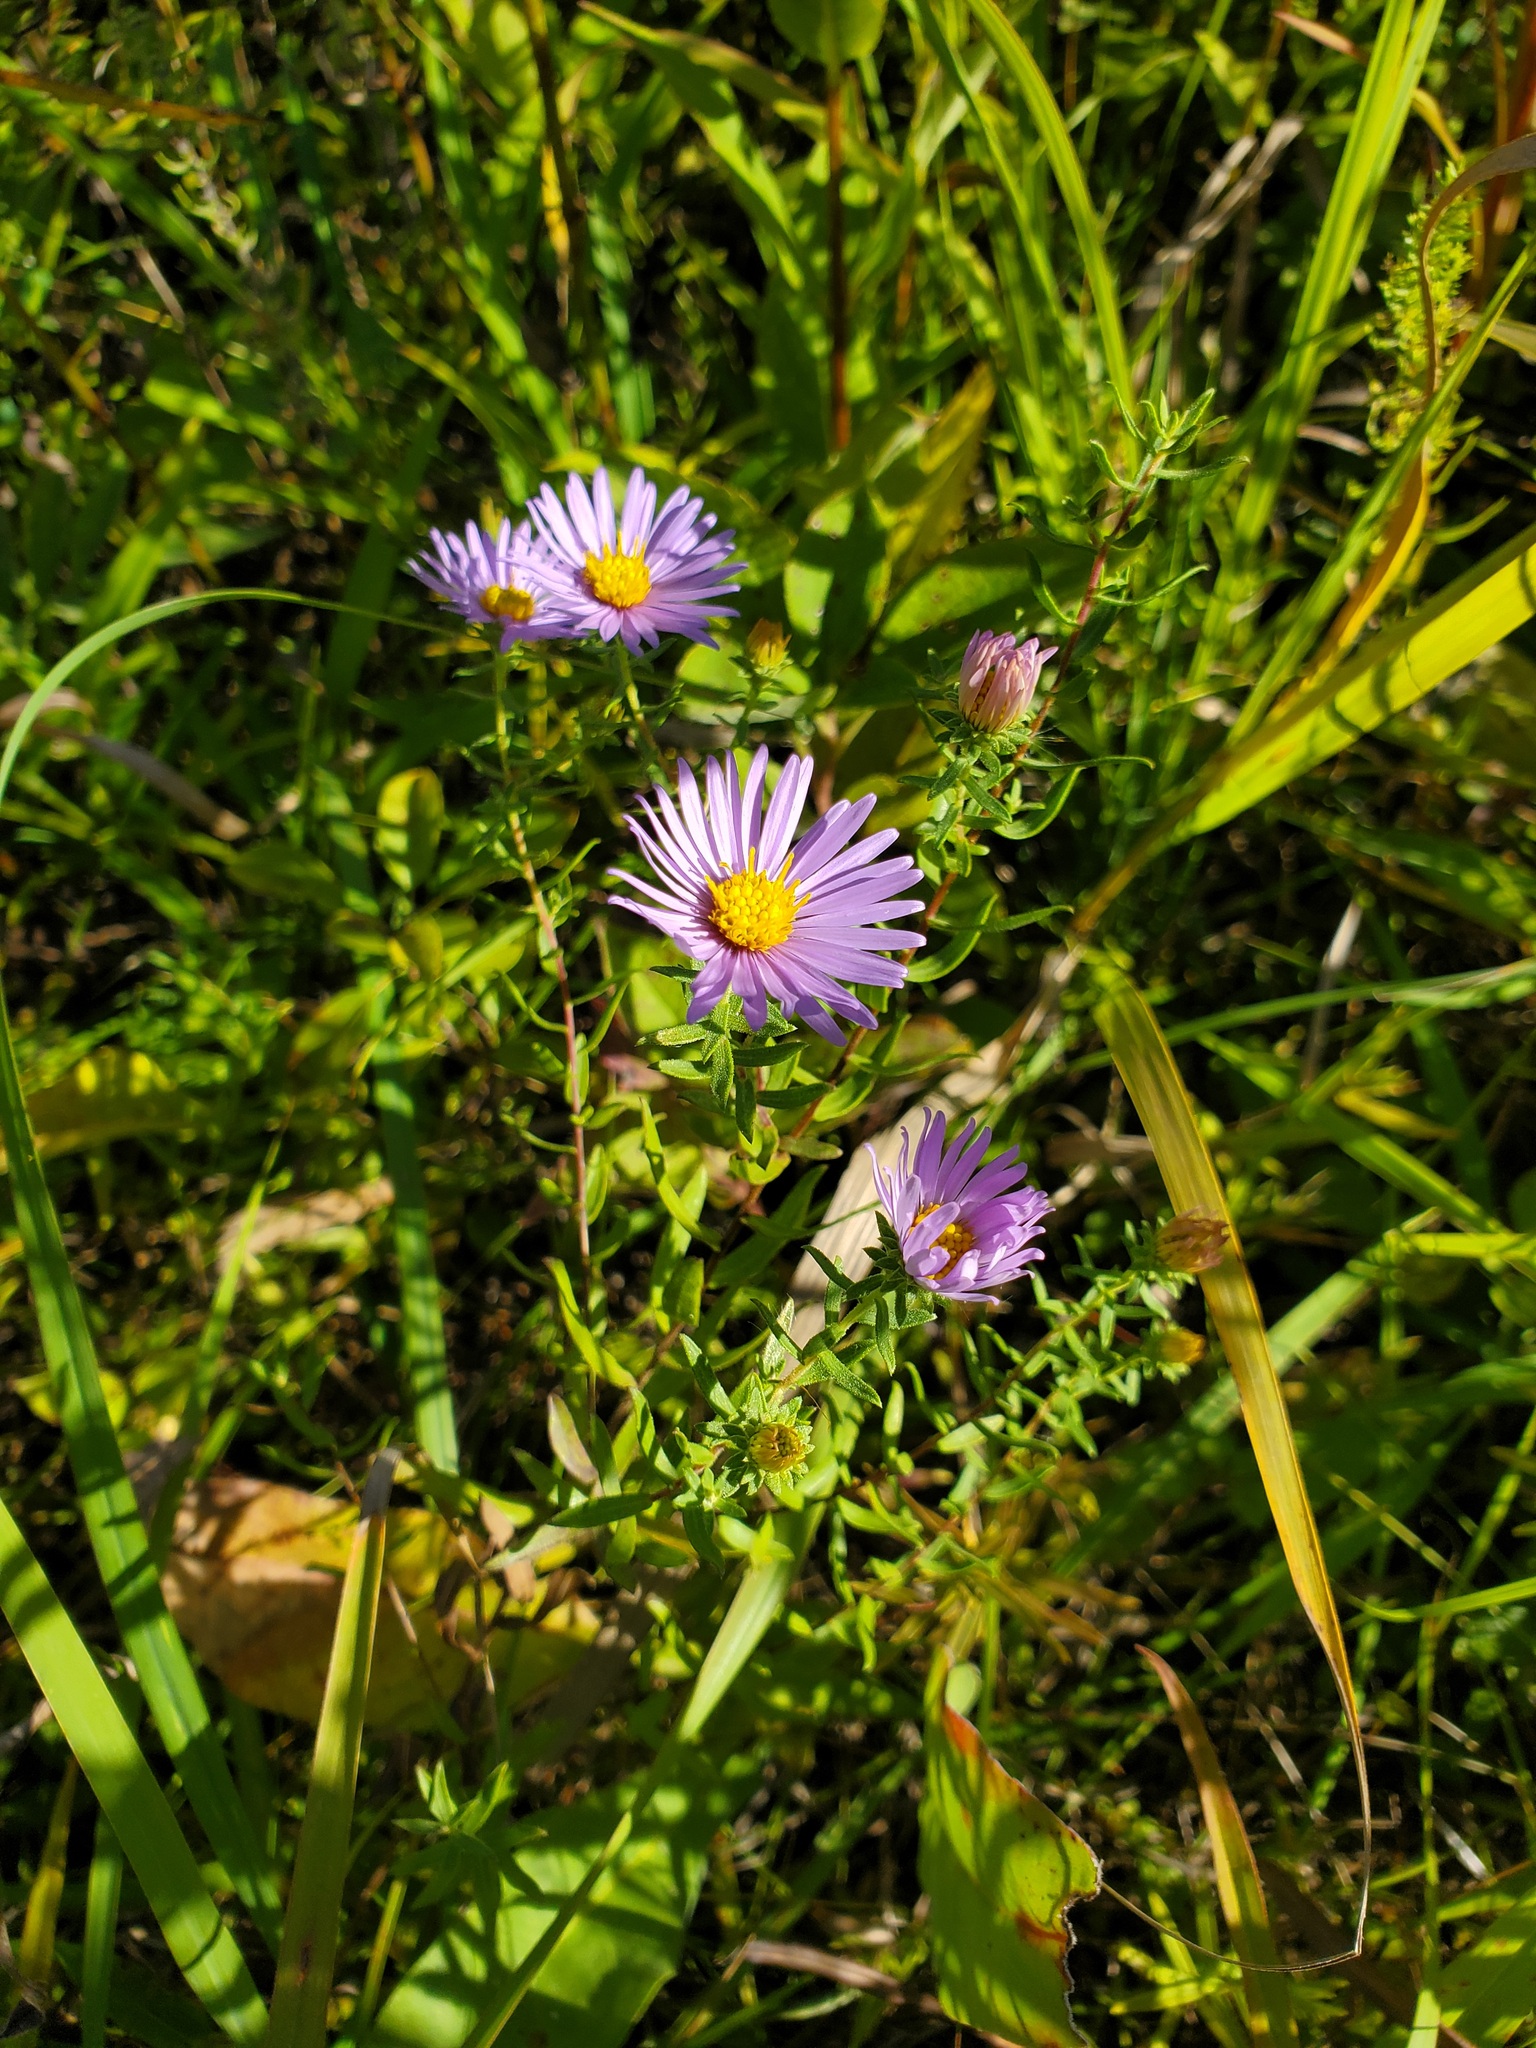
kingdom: Plantae
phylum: Tracheophyta
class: Magnoliopsida
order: Asterales
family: Asteraceae
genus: Symphyotrichum
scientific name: Symphyotrichum oblongifolium
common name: Aromatic aster
